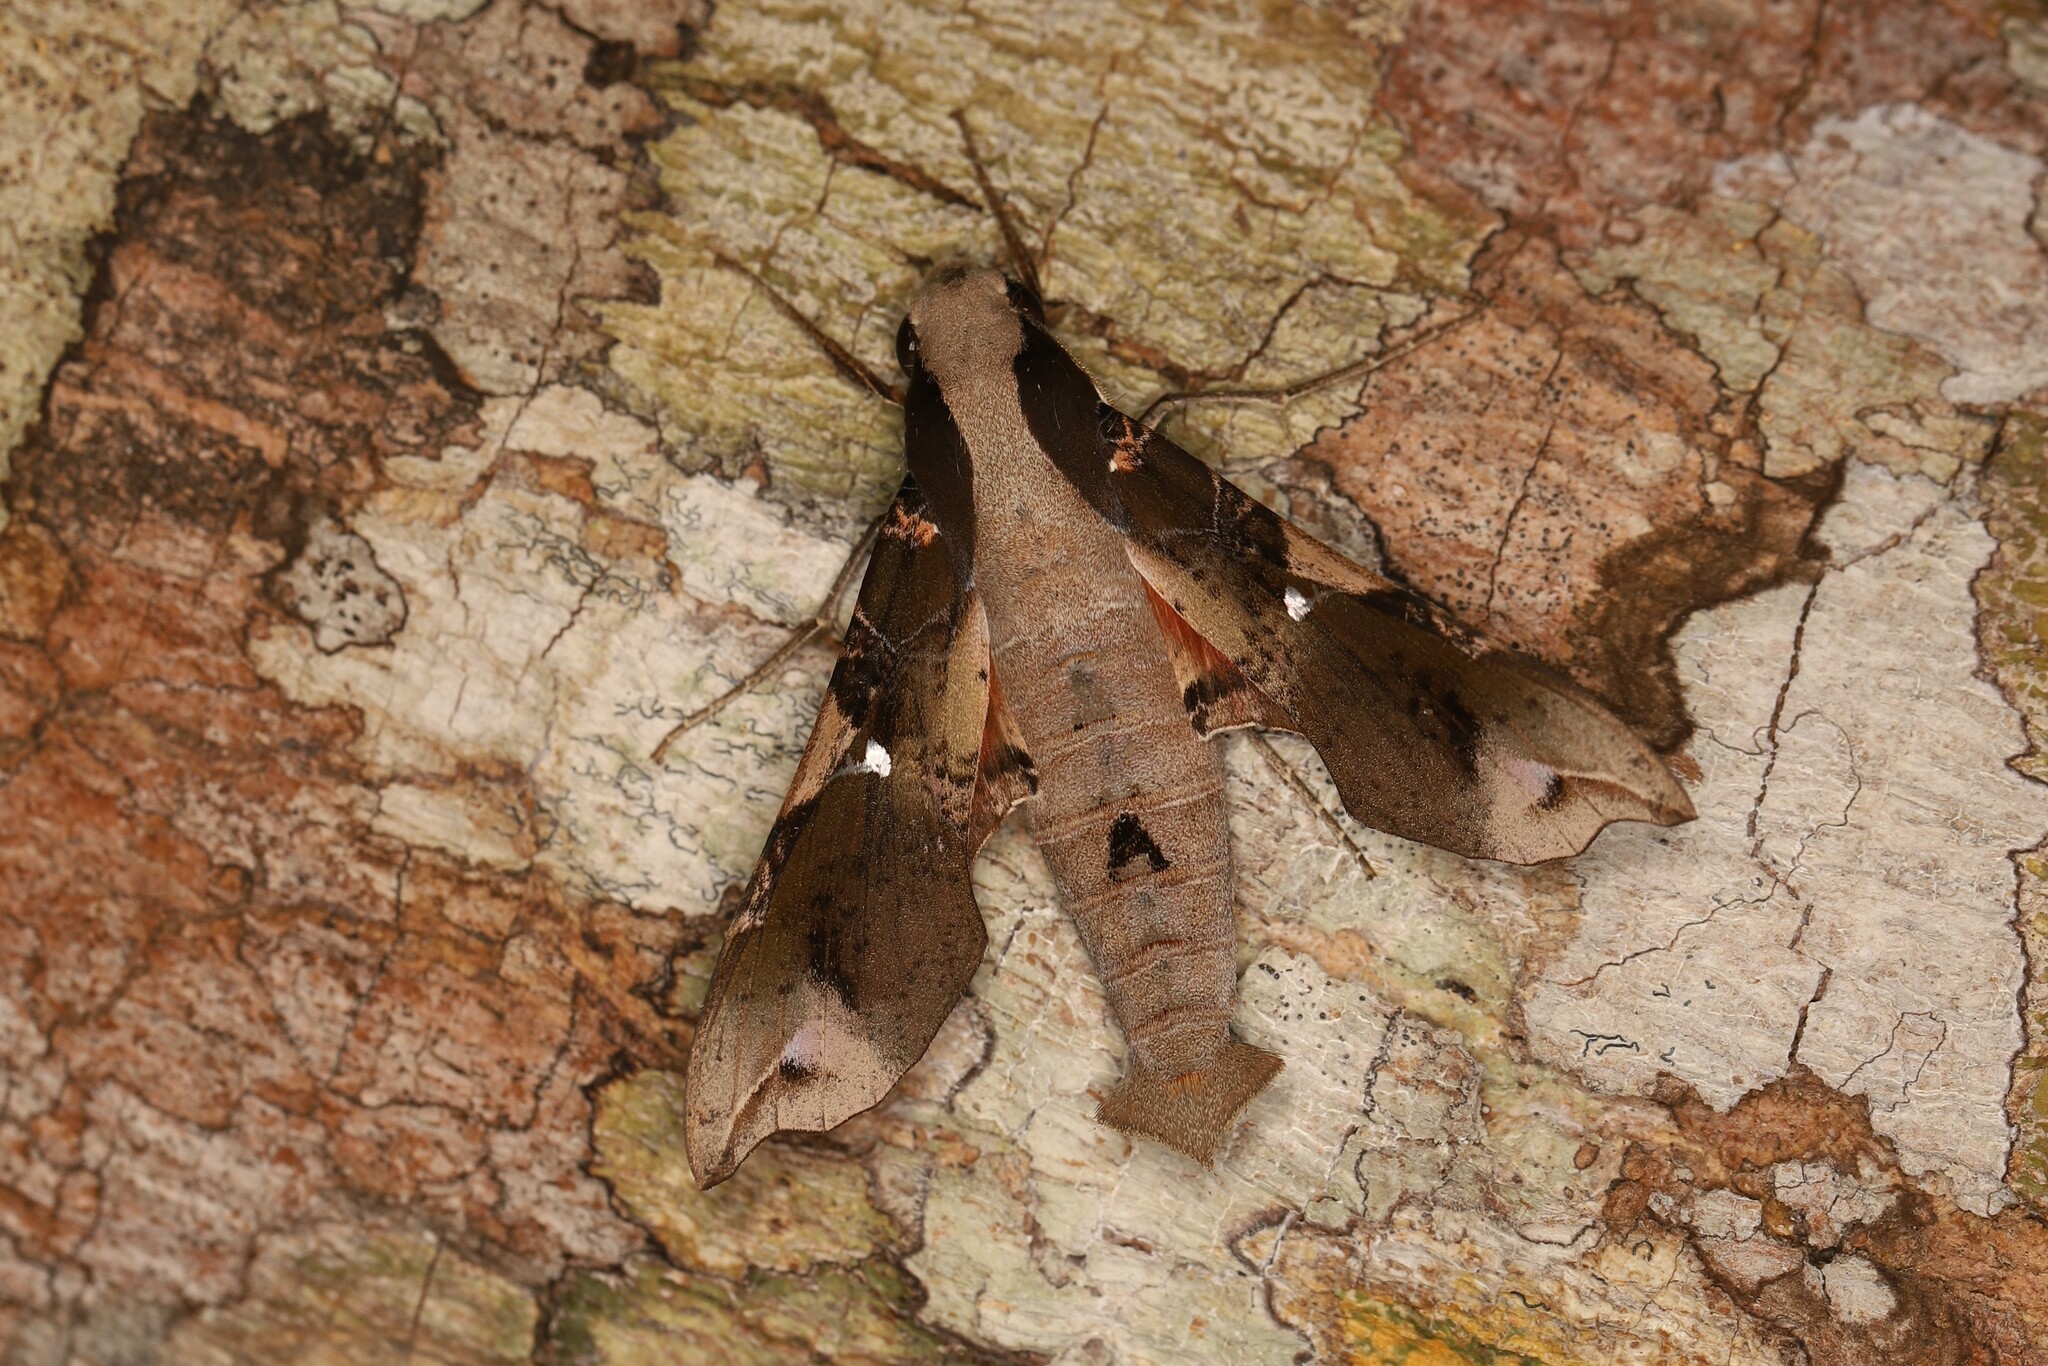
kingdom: Animalia
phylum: Arthropoda
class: Insecta
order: Lepidoptera
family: Sphingidae
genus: Callionima
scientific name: Callionima pan
